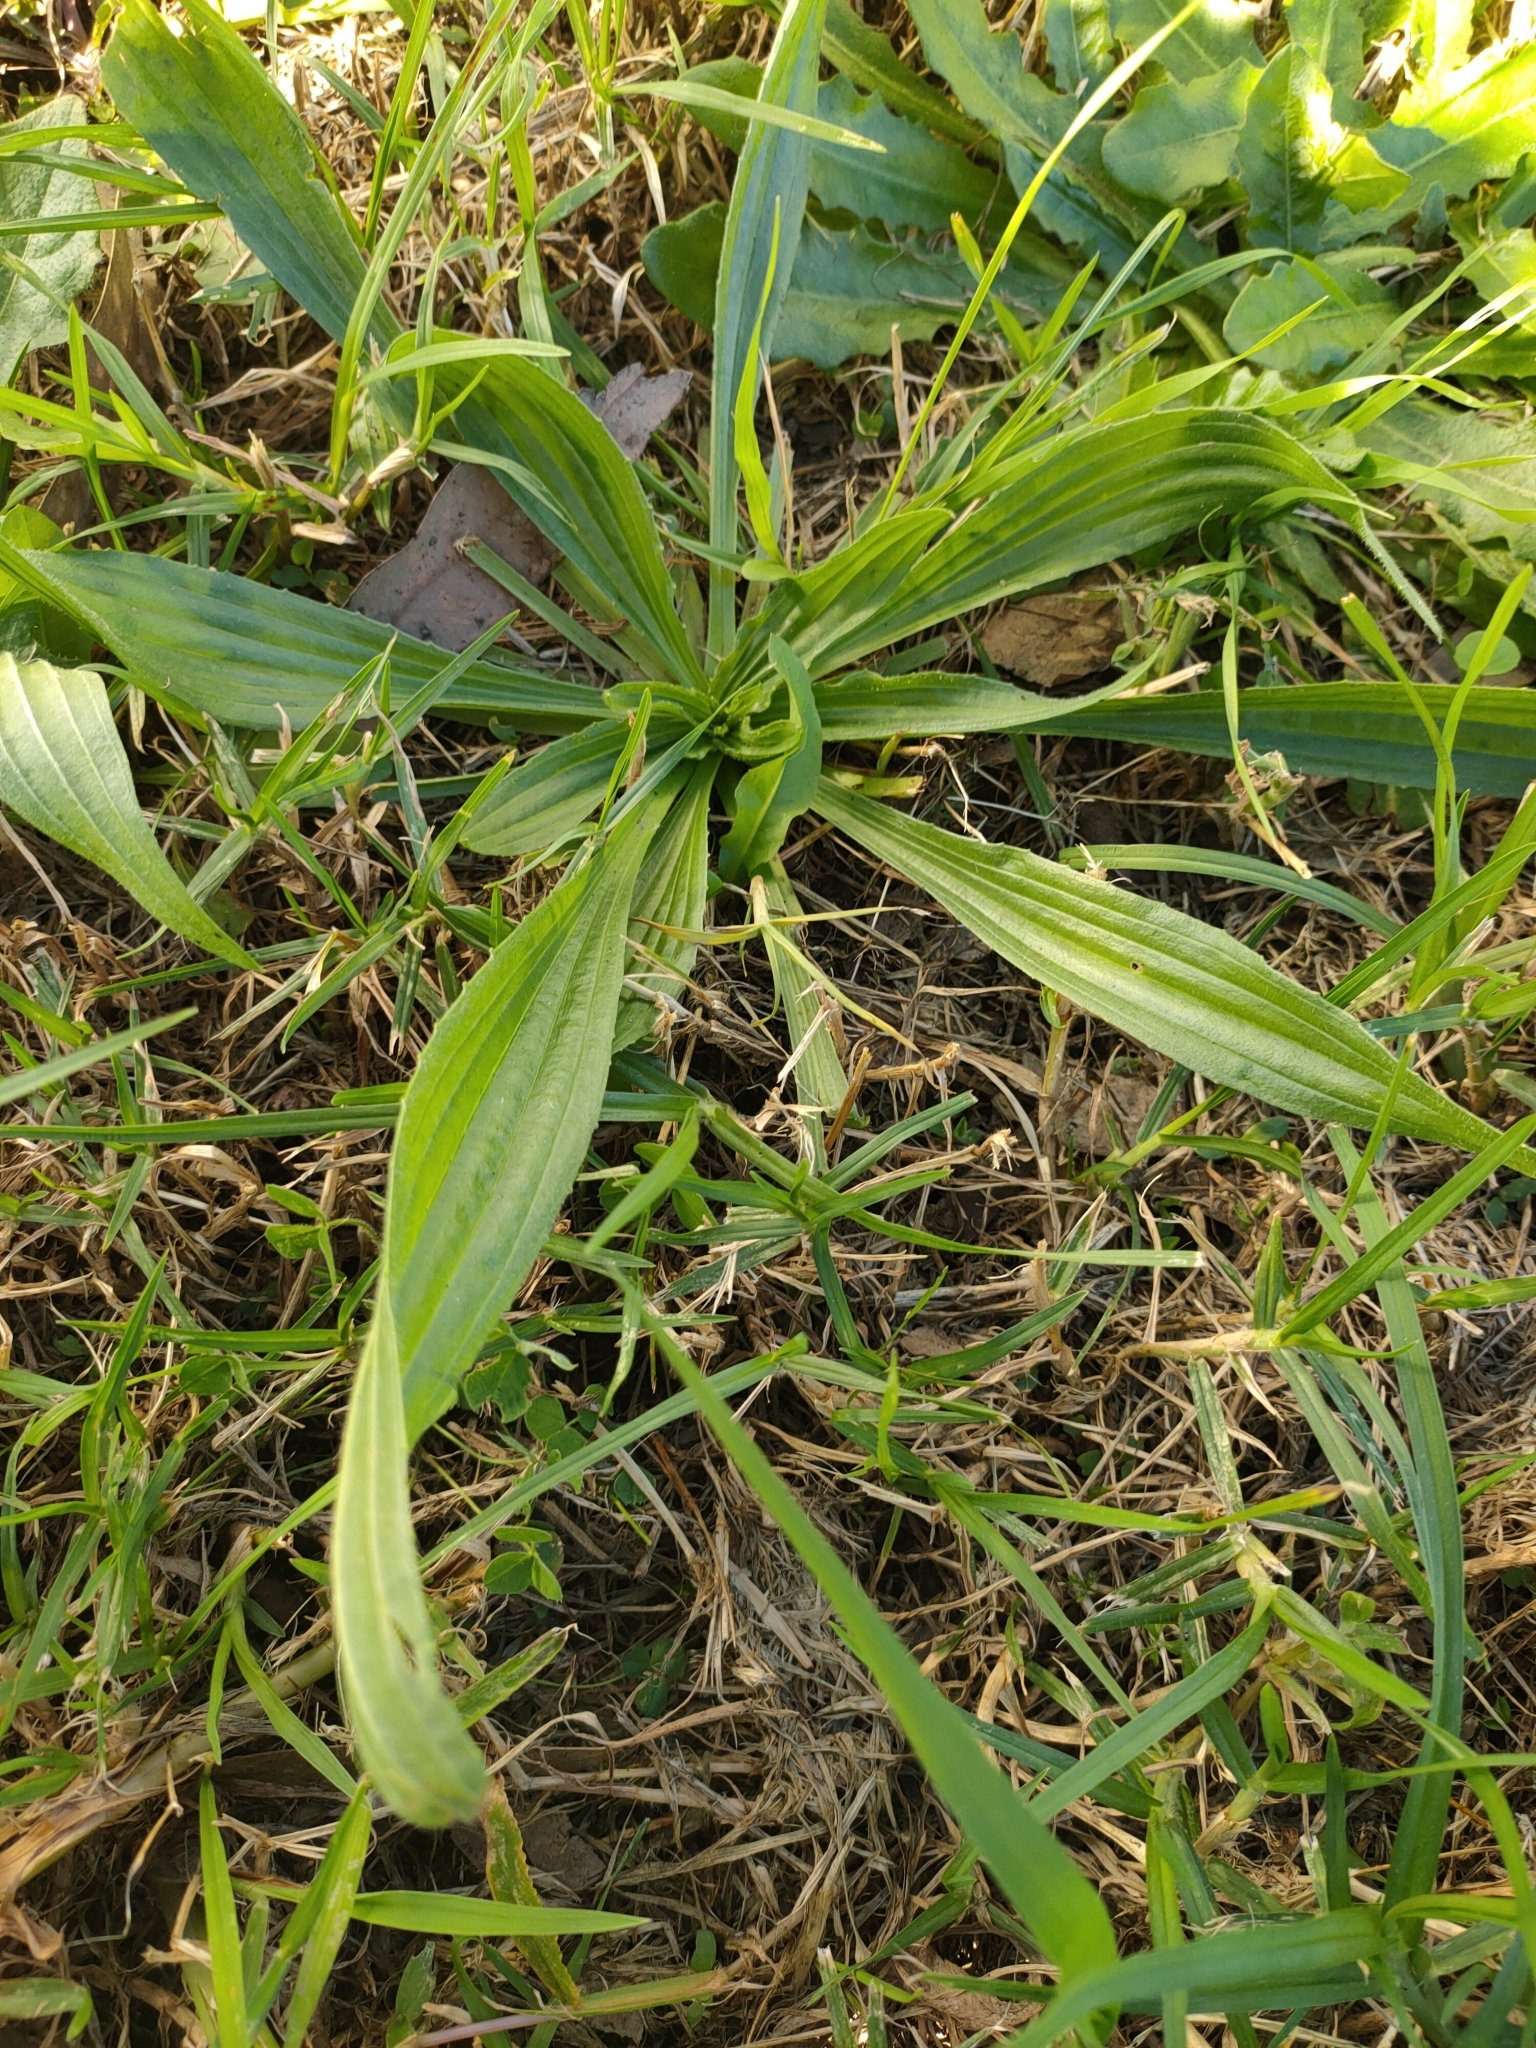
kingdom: Plantae
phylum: Tracheophyta
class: Magnoliopsida
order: Lamiales
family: Plantaginaceae
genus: Plantago
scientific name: Plantago lanceolata
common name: Ribwort plantain
